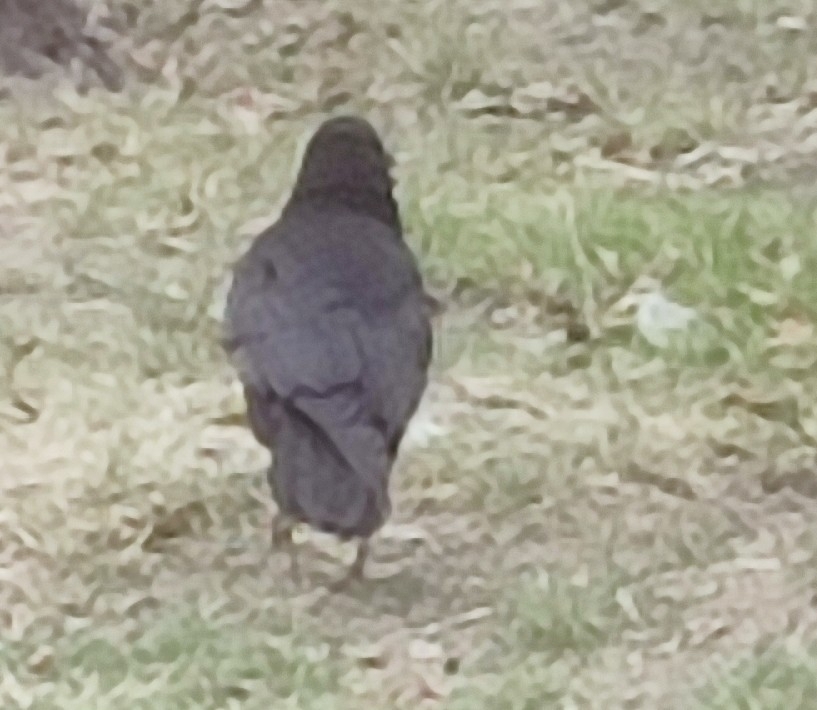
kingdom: Animalia
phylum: Chordata
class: Aves
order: Passeriformes
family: Corvidae
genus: Corvus
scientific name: Corvus frugilegus
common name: Rook
